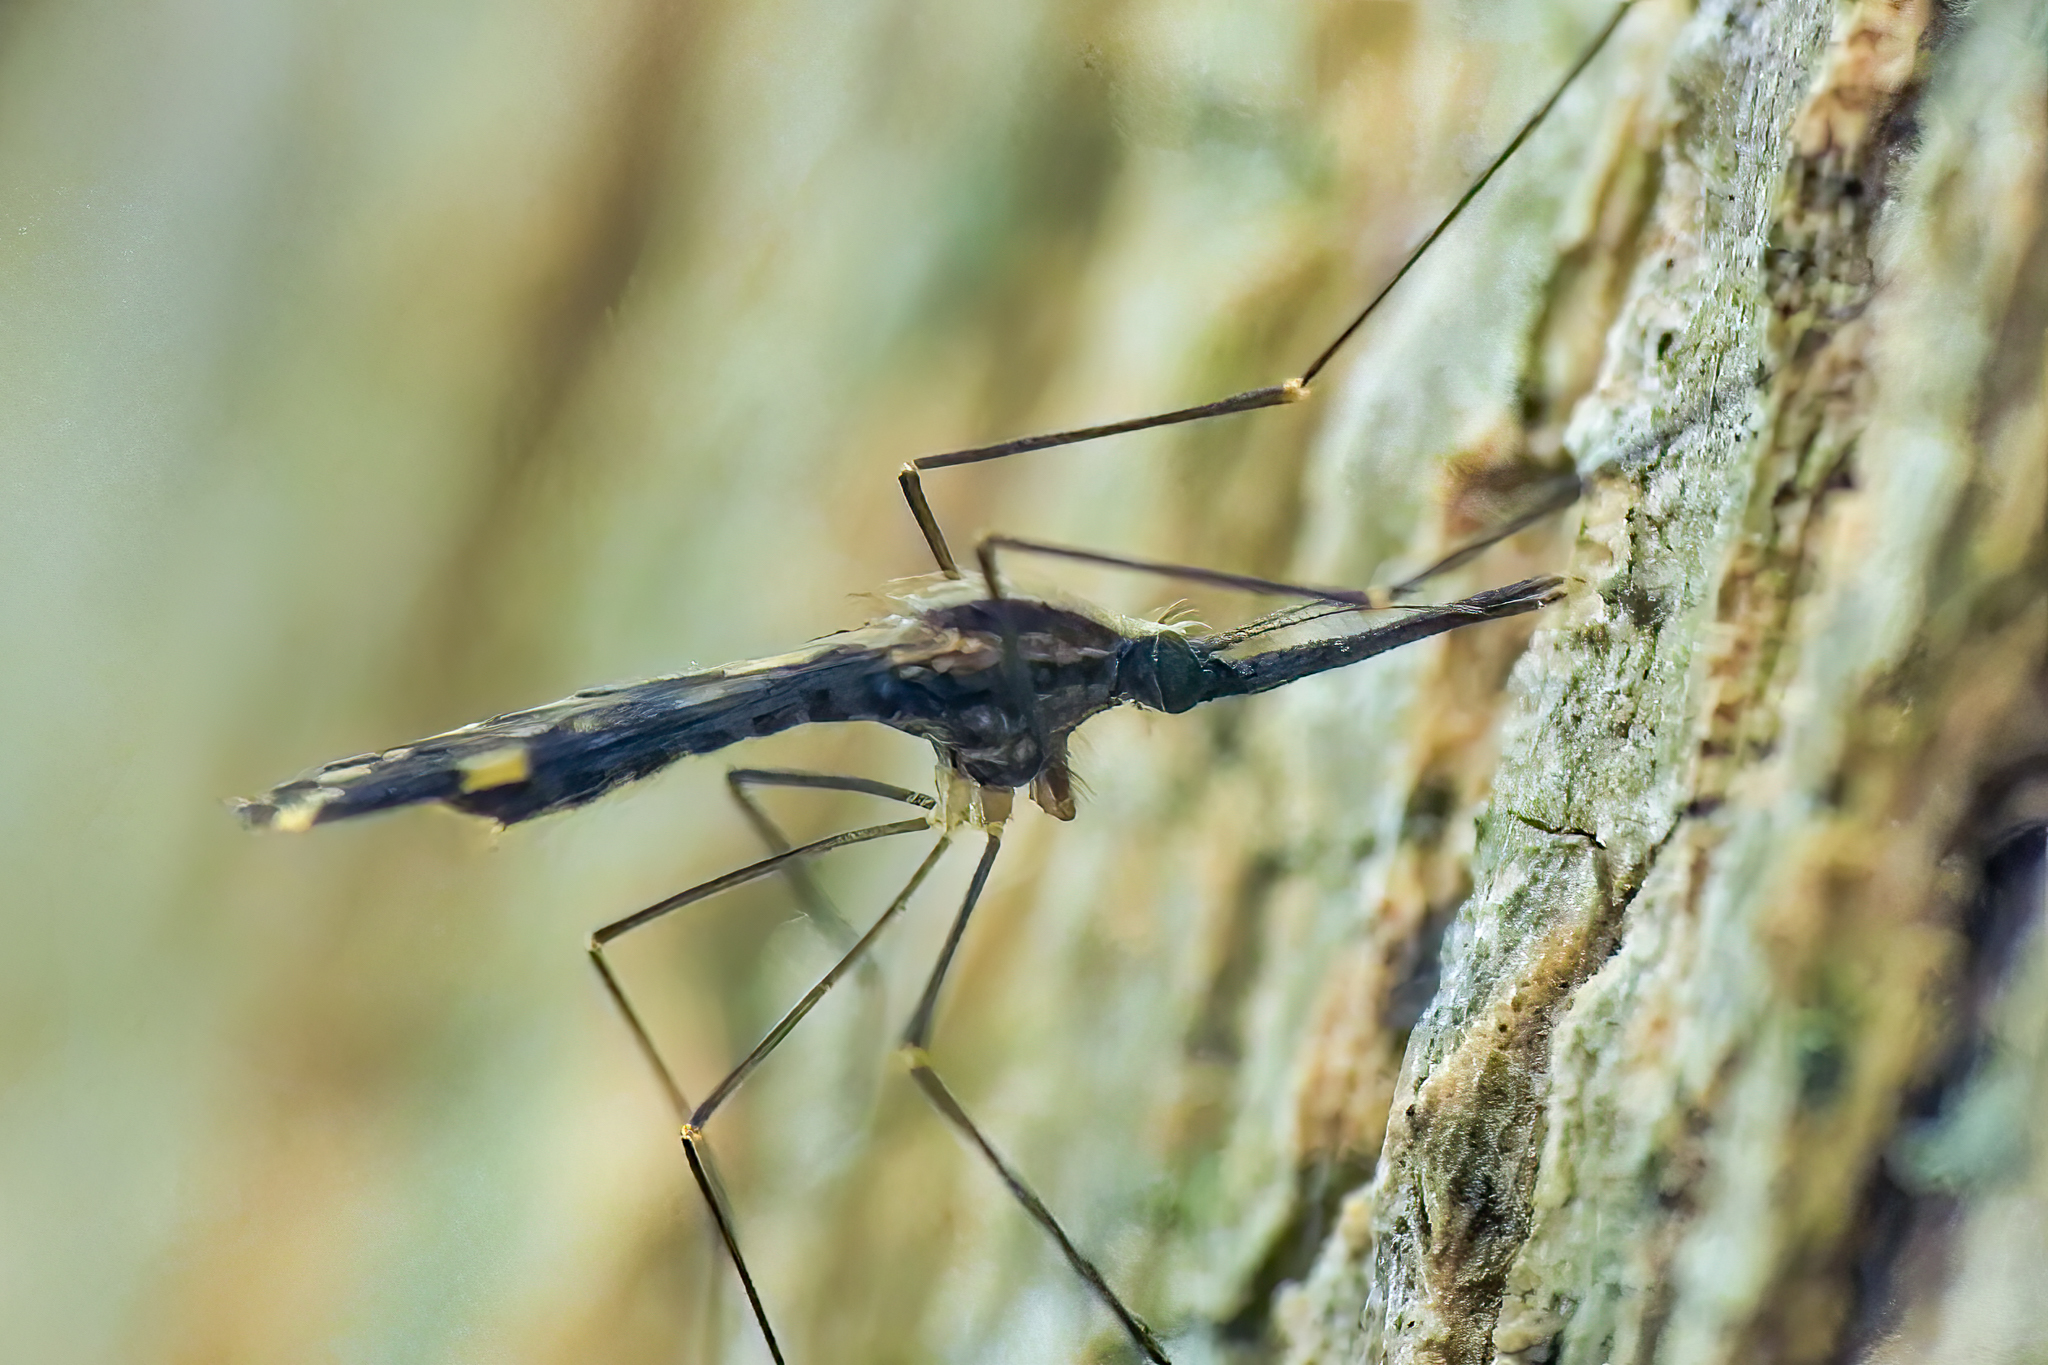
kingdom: Animalia
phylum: Arthropoda
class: Insecta
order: Diptera
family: Culicidae
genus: Anopheles
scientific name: Anopheles punctipennis
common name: Woodland malaria mosquito
